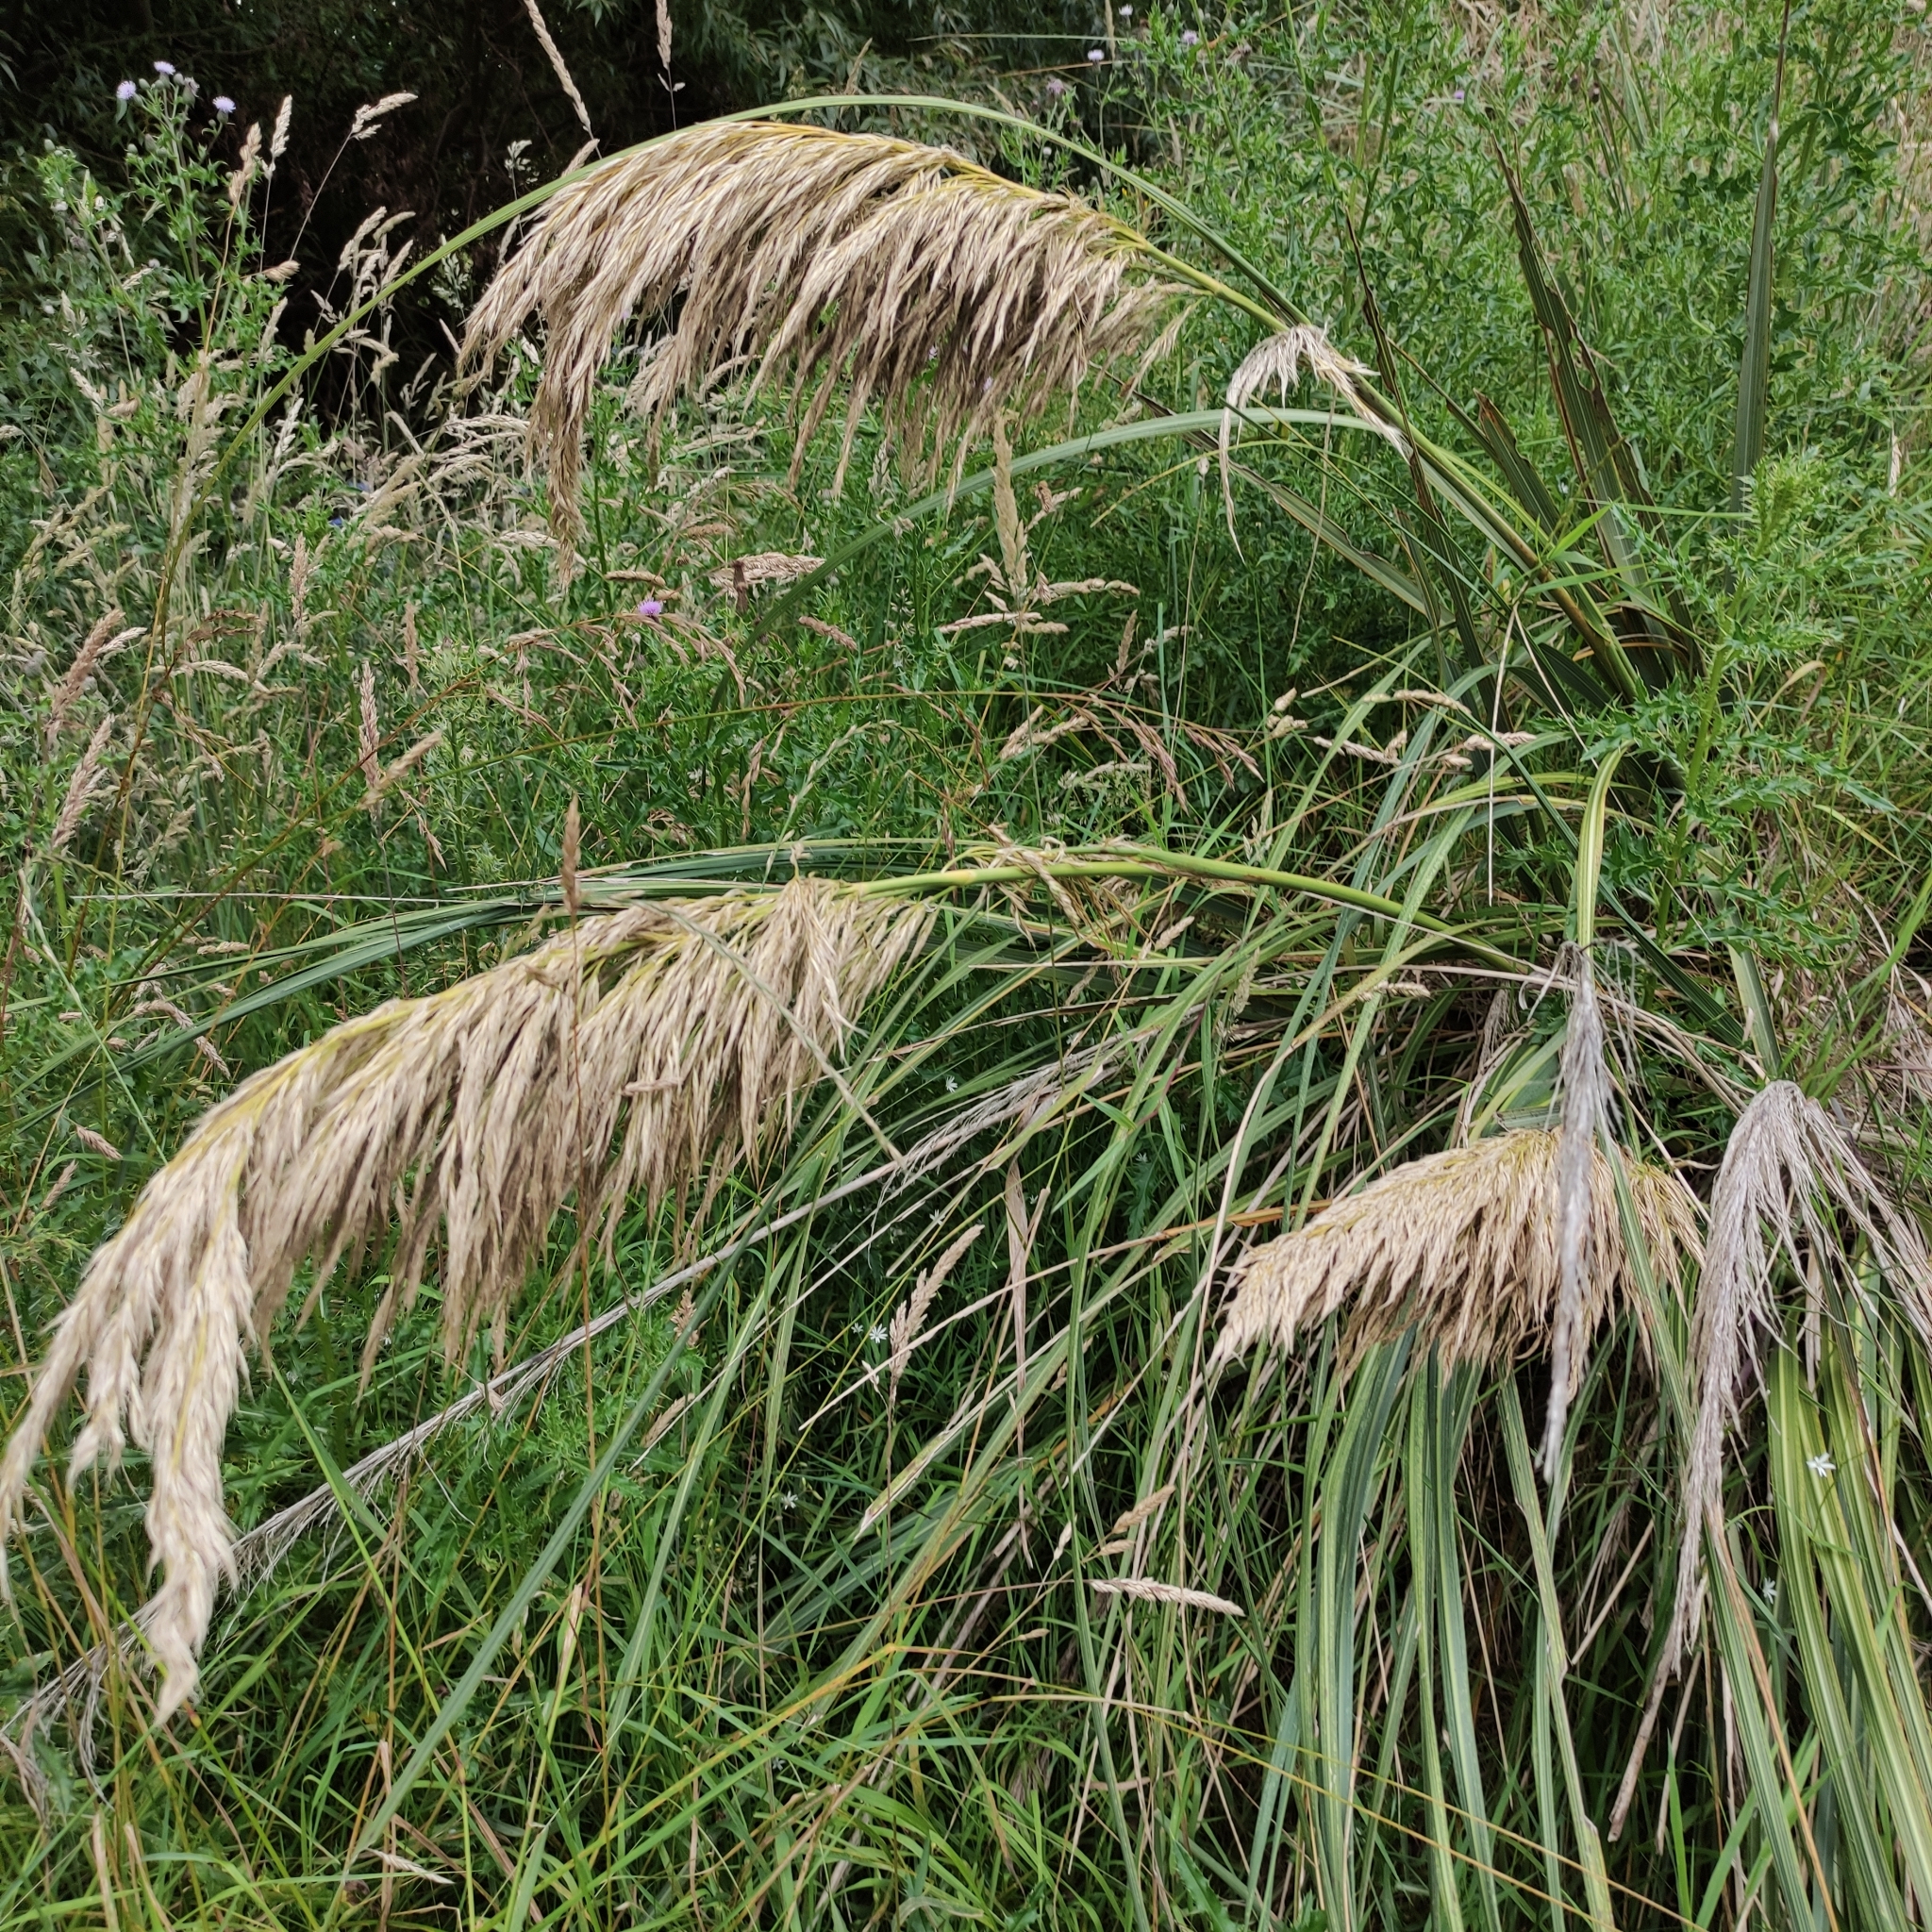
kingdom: Plantae
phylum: Tracheophyta
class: Liliopsida
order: Poales
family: Poaceae
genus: Austroderia
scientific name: Austroderia richardii
